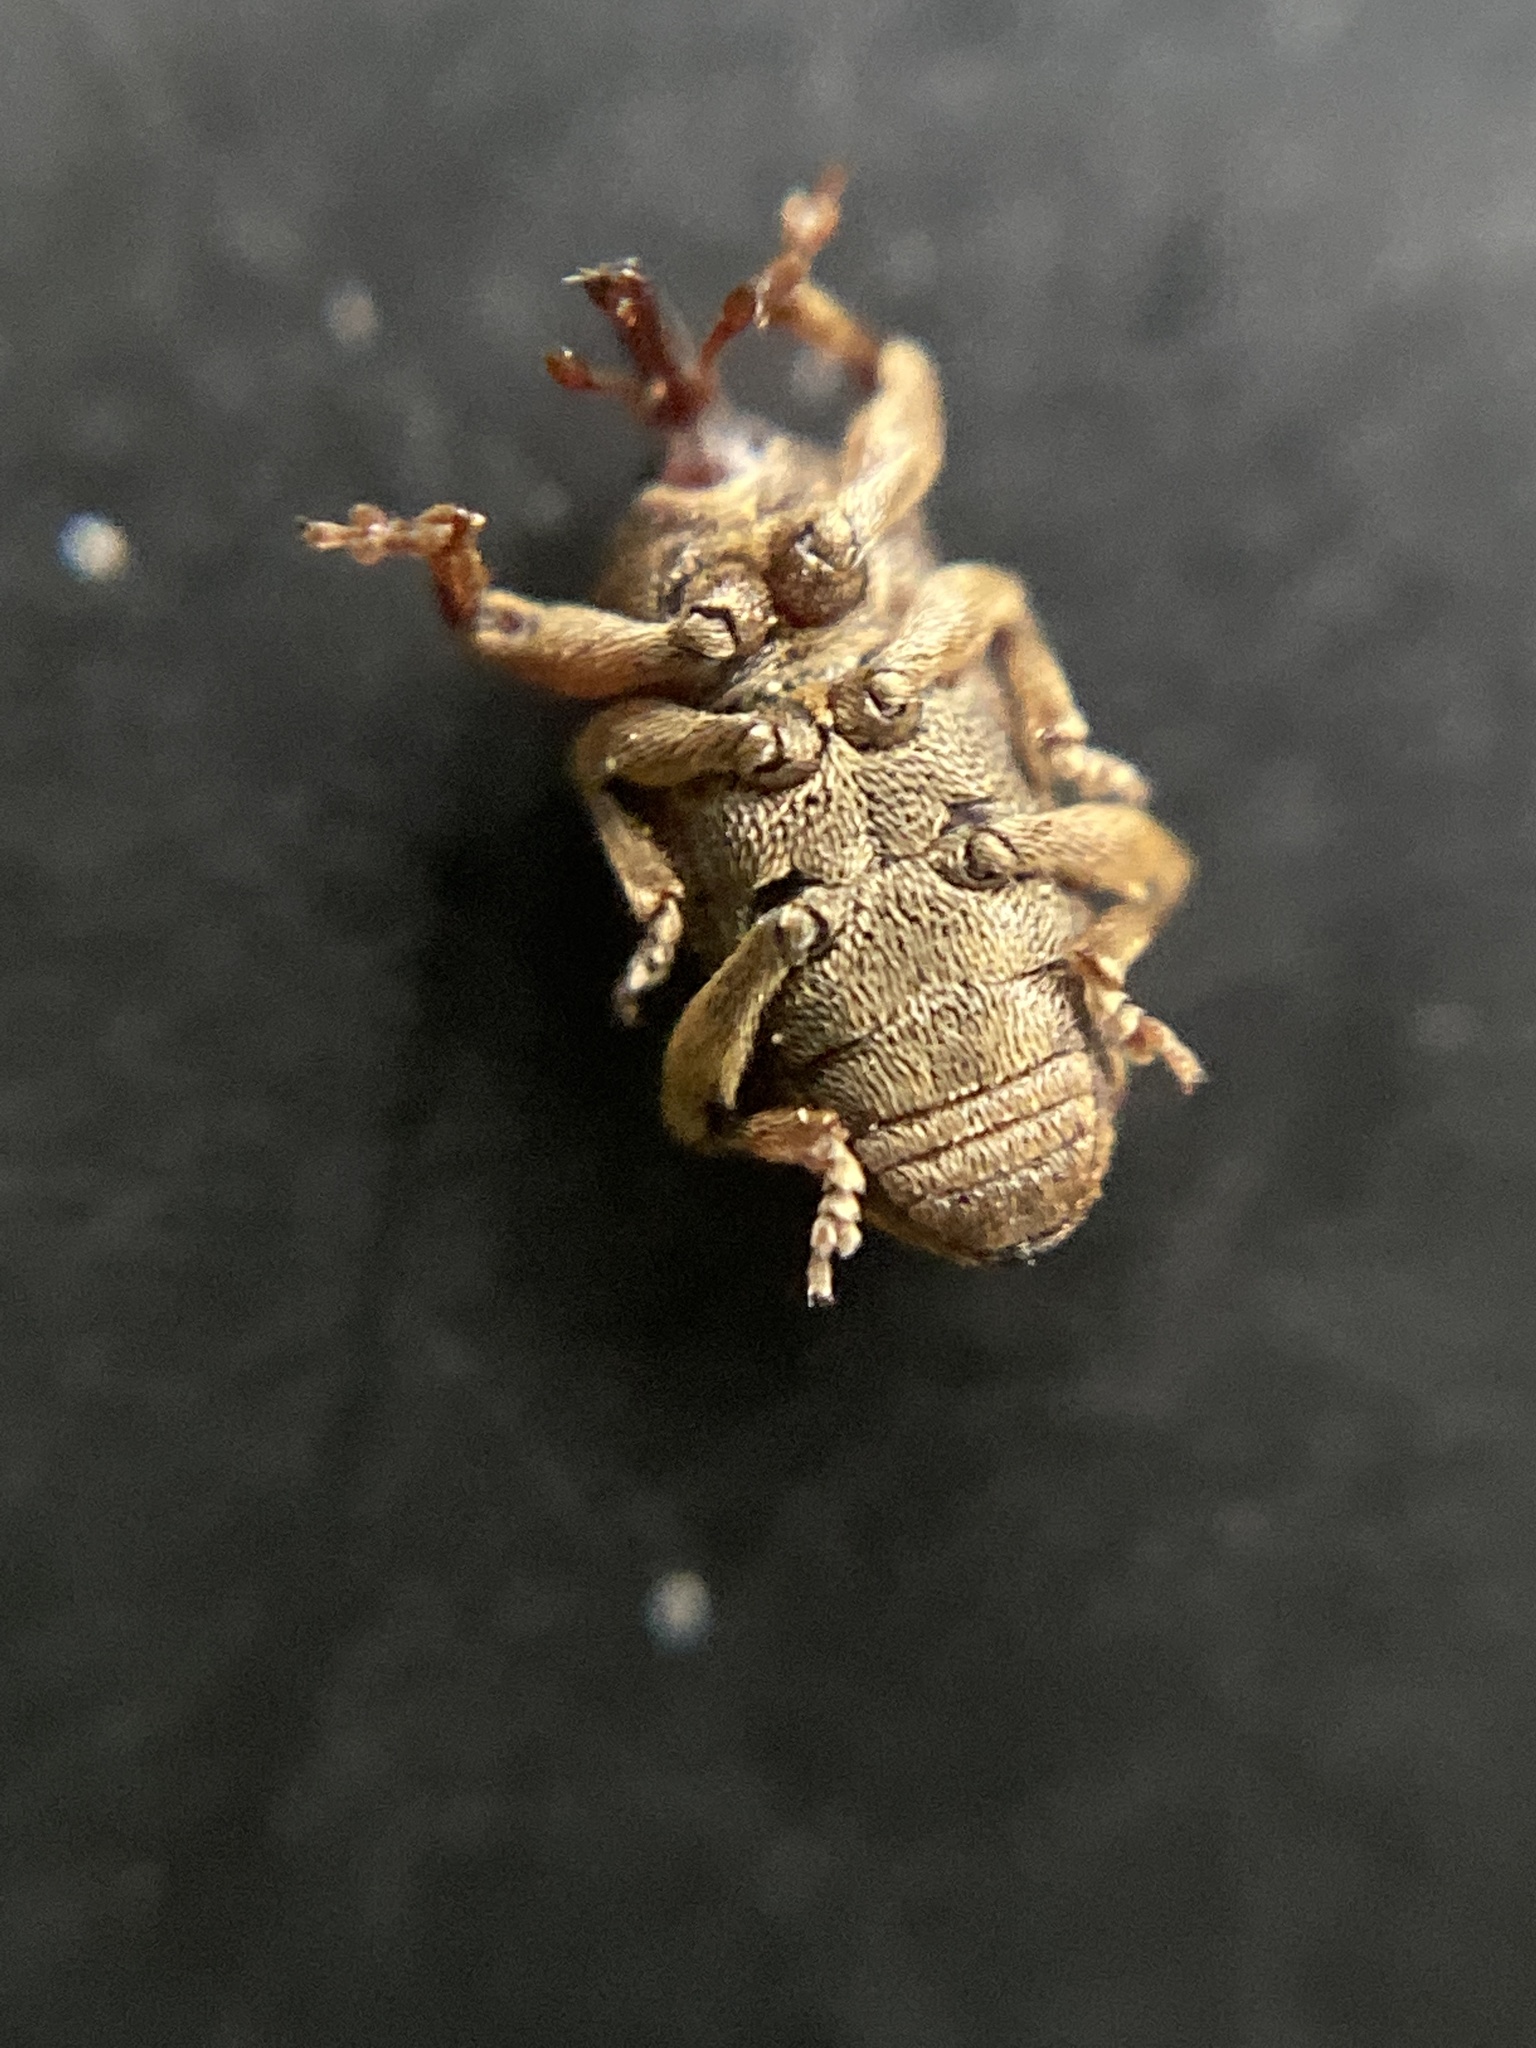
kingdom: Animalia
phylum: Arthropoda
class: Insecta
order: Coleoptera
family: Curculionidae
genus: Pachytychius
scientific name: Pachytychius haematocephalus
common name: Weevil
